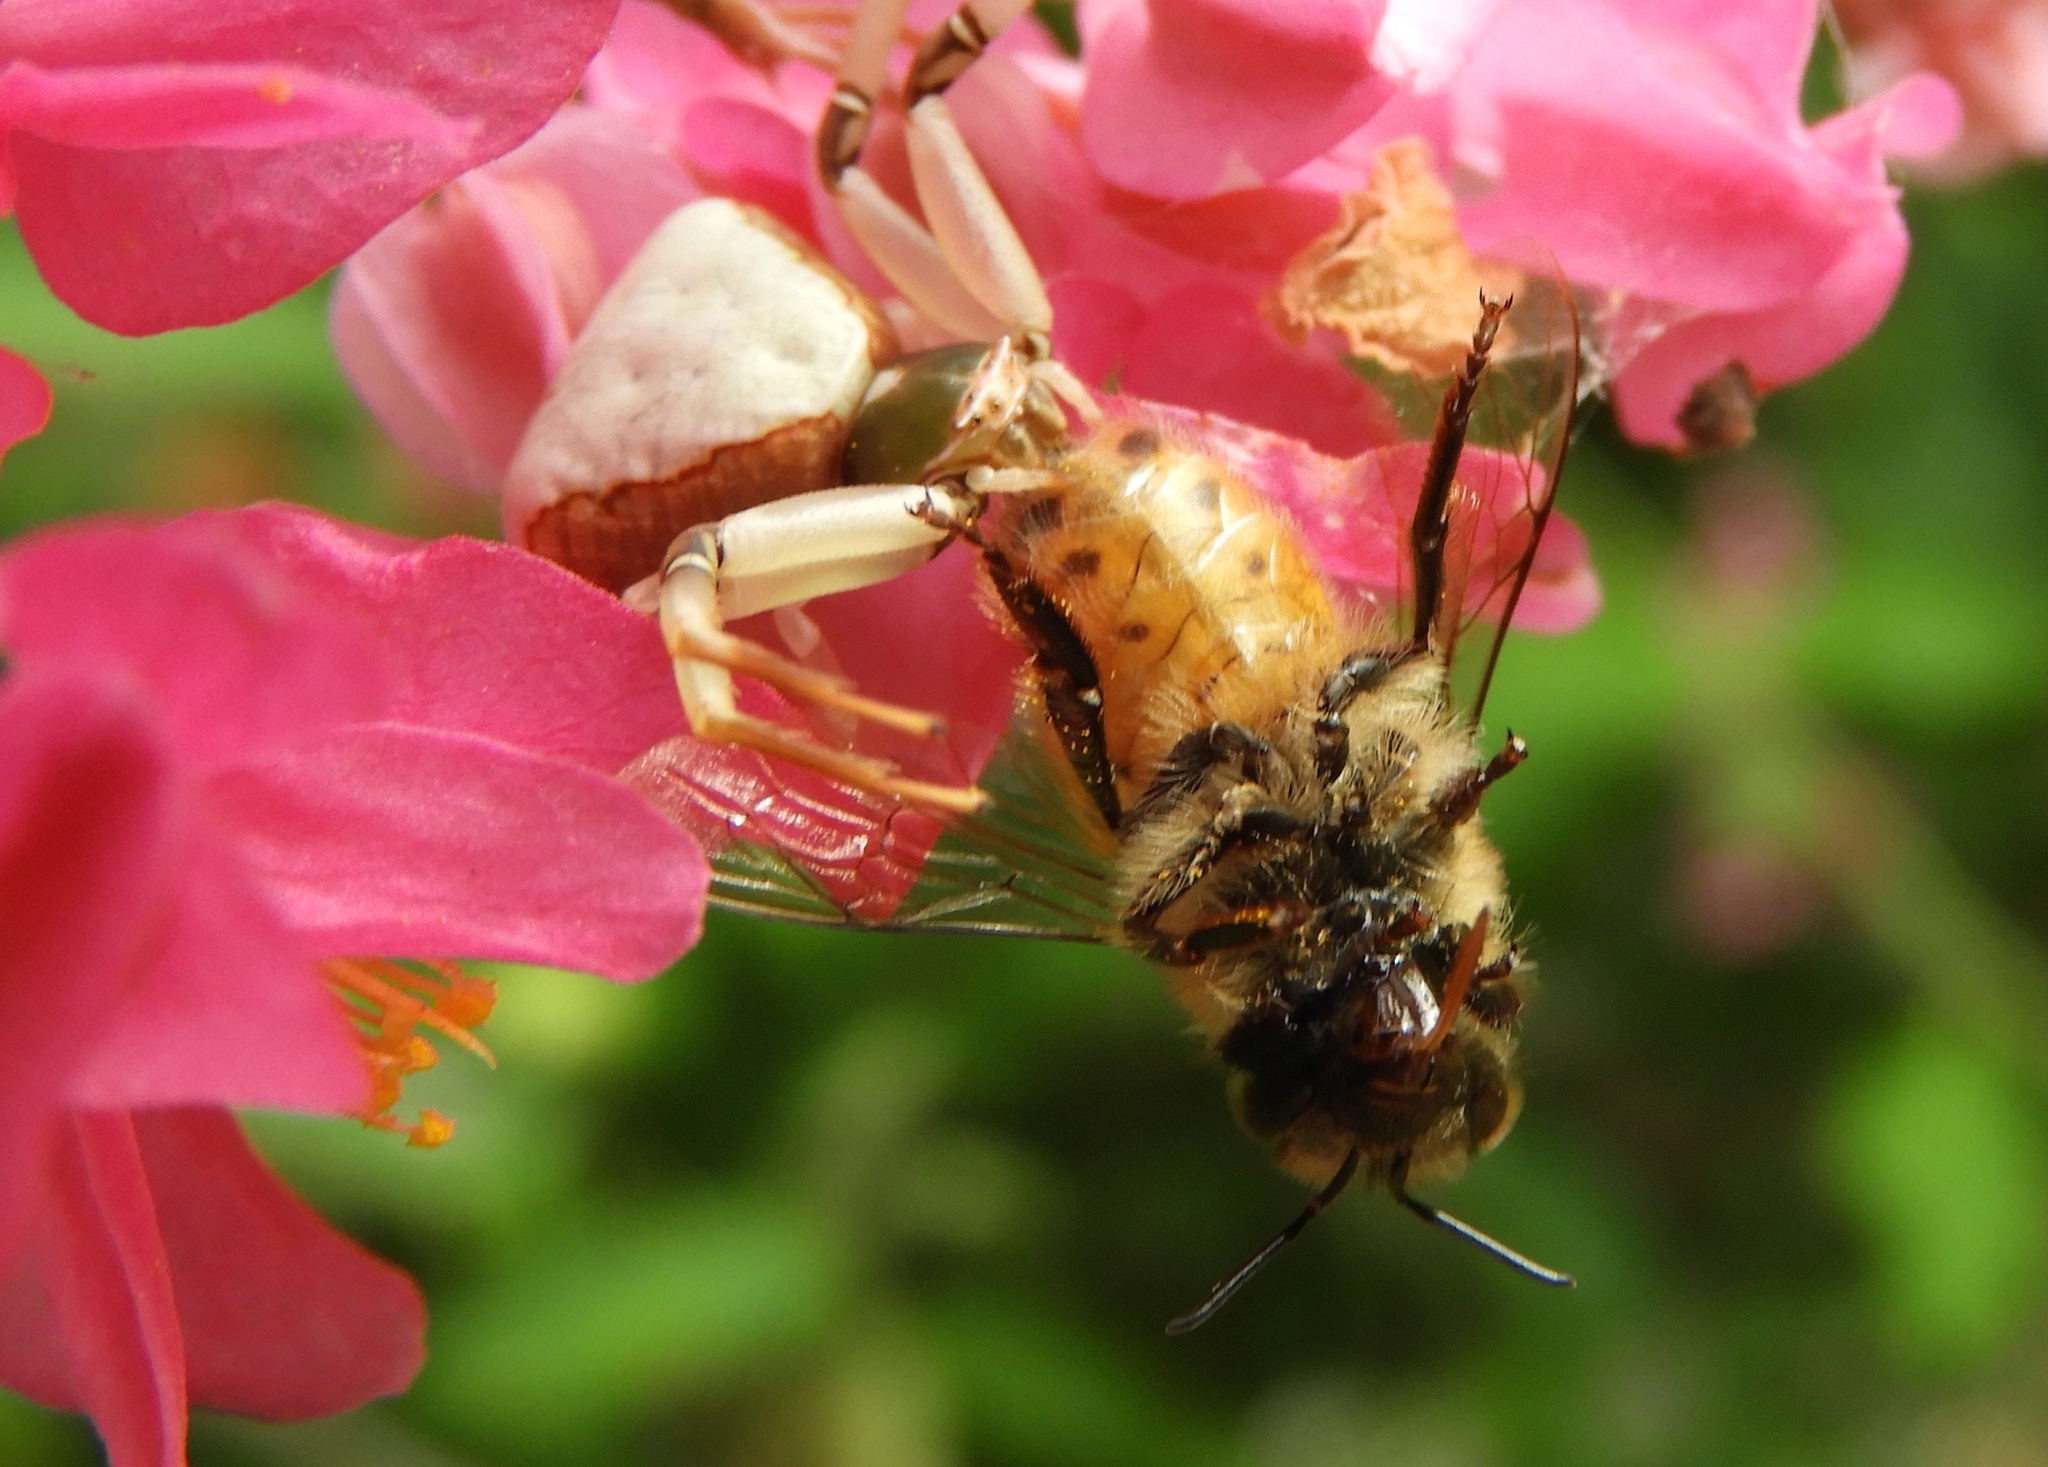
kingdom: Animalia
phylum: Arthropoda
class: Arachnida
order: Araneae
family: Thomisidae
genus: Misumena
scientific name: Misumena vatia
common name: Goldenrod crab spider
